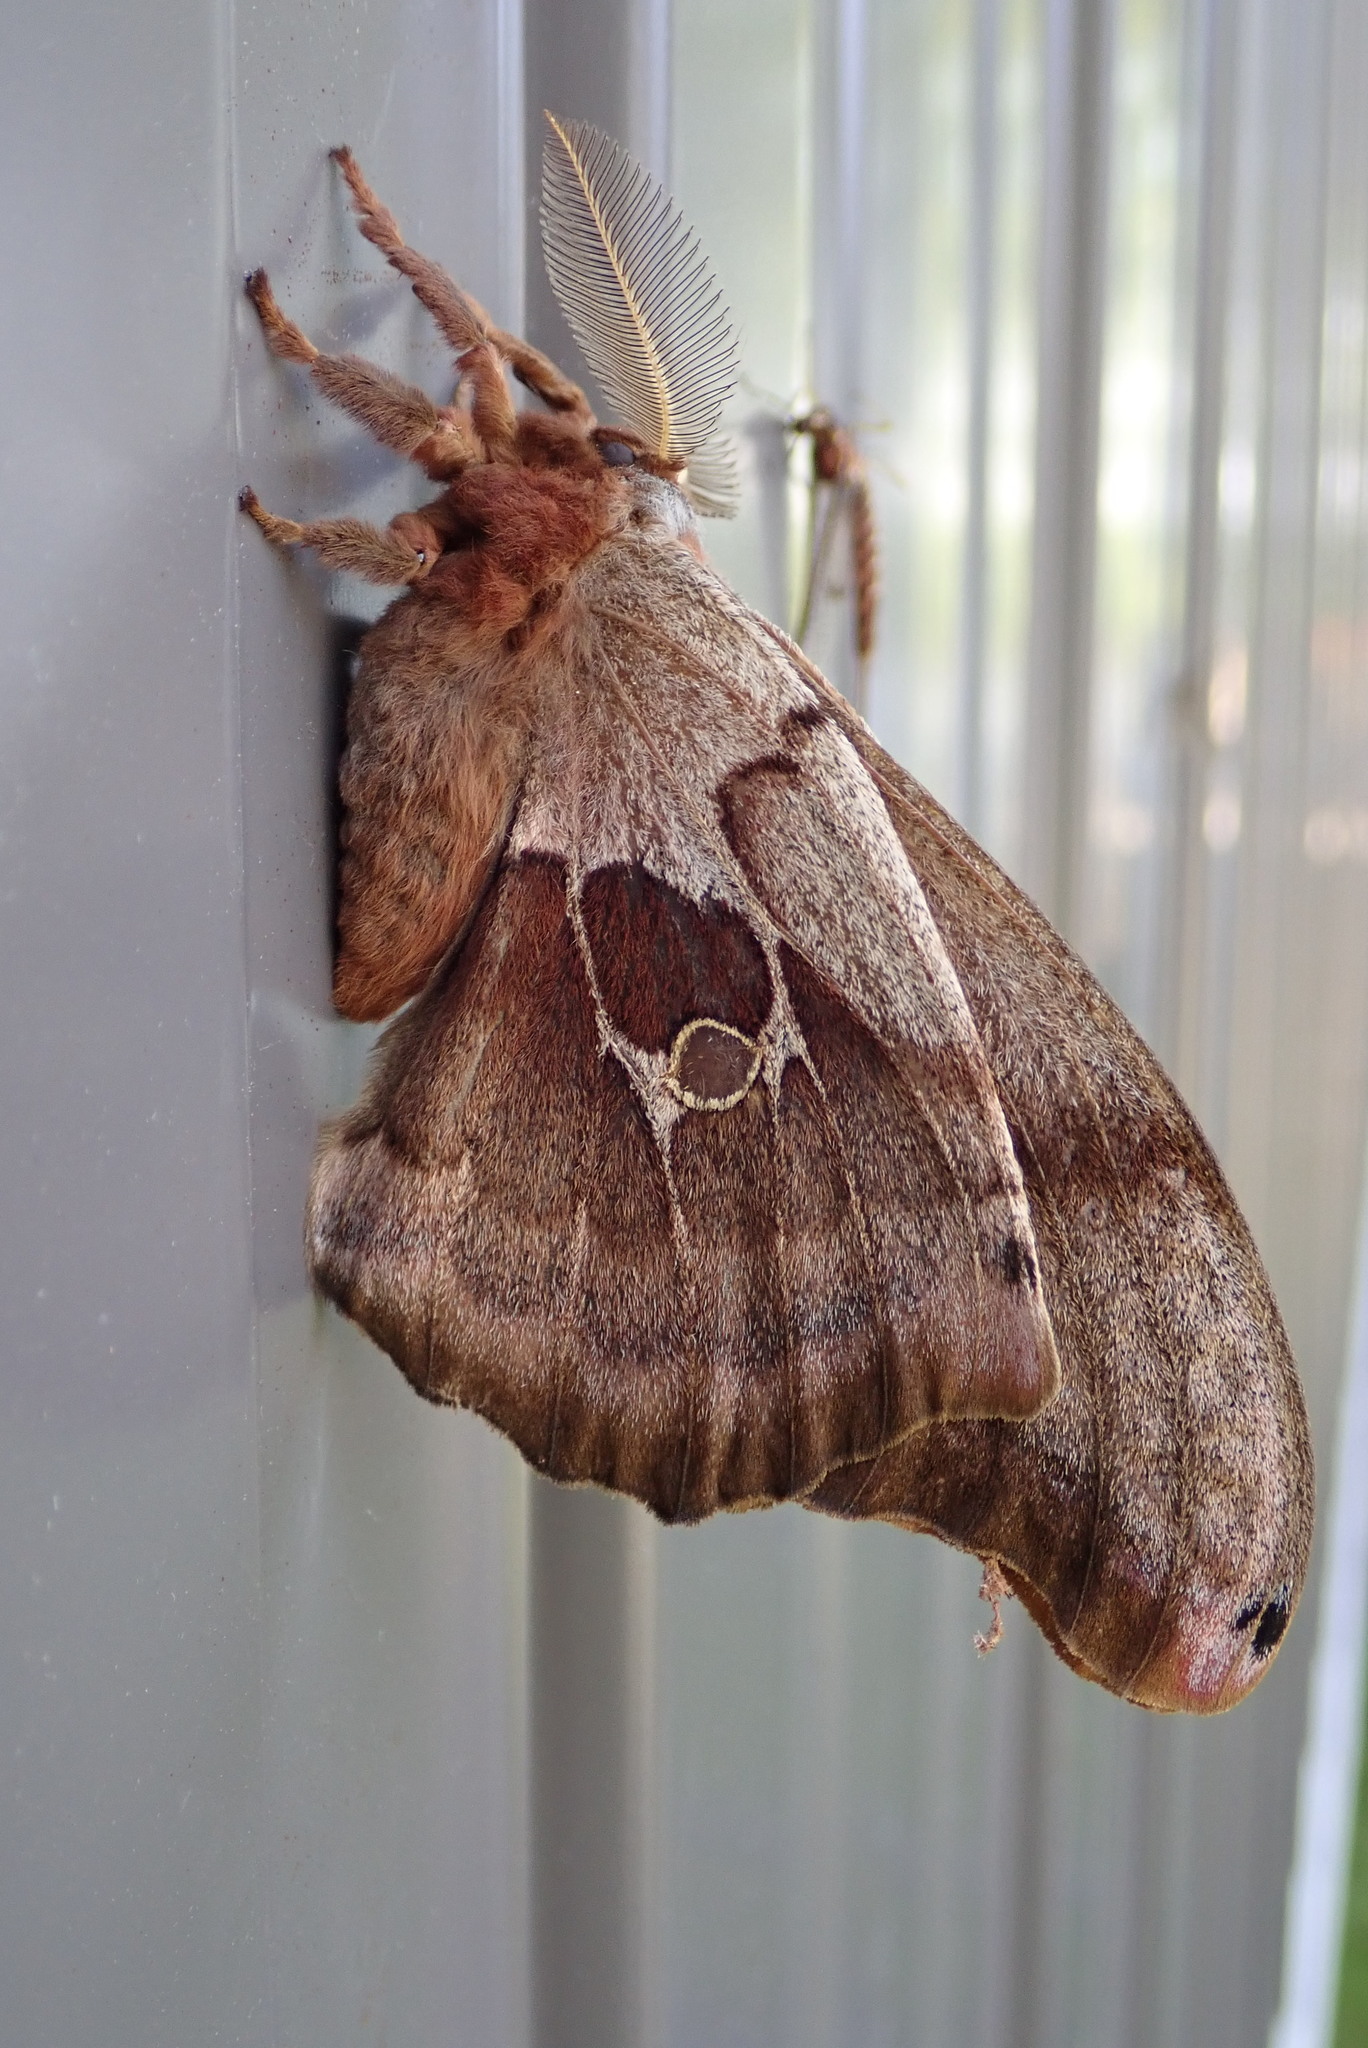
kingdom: Animalia
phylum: Arthropoda
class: Insecta
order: Lepidoptera
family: Saturniidae
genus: Antheraea
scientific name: Antheraea polyphemus
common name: Polyphemus moth
